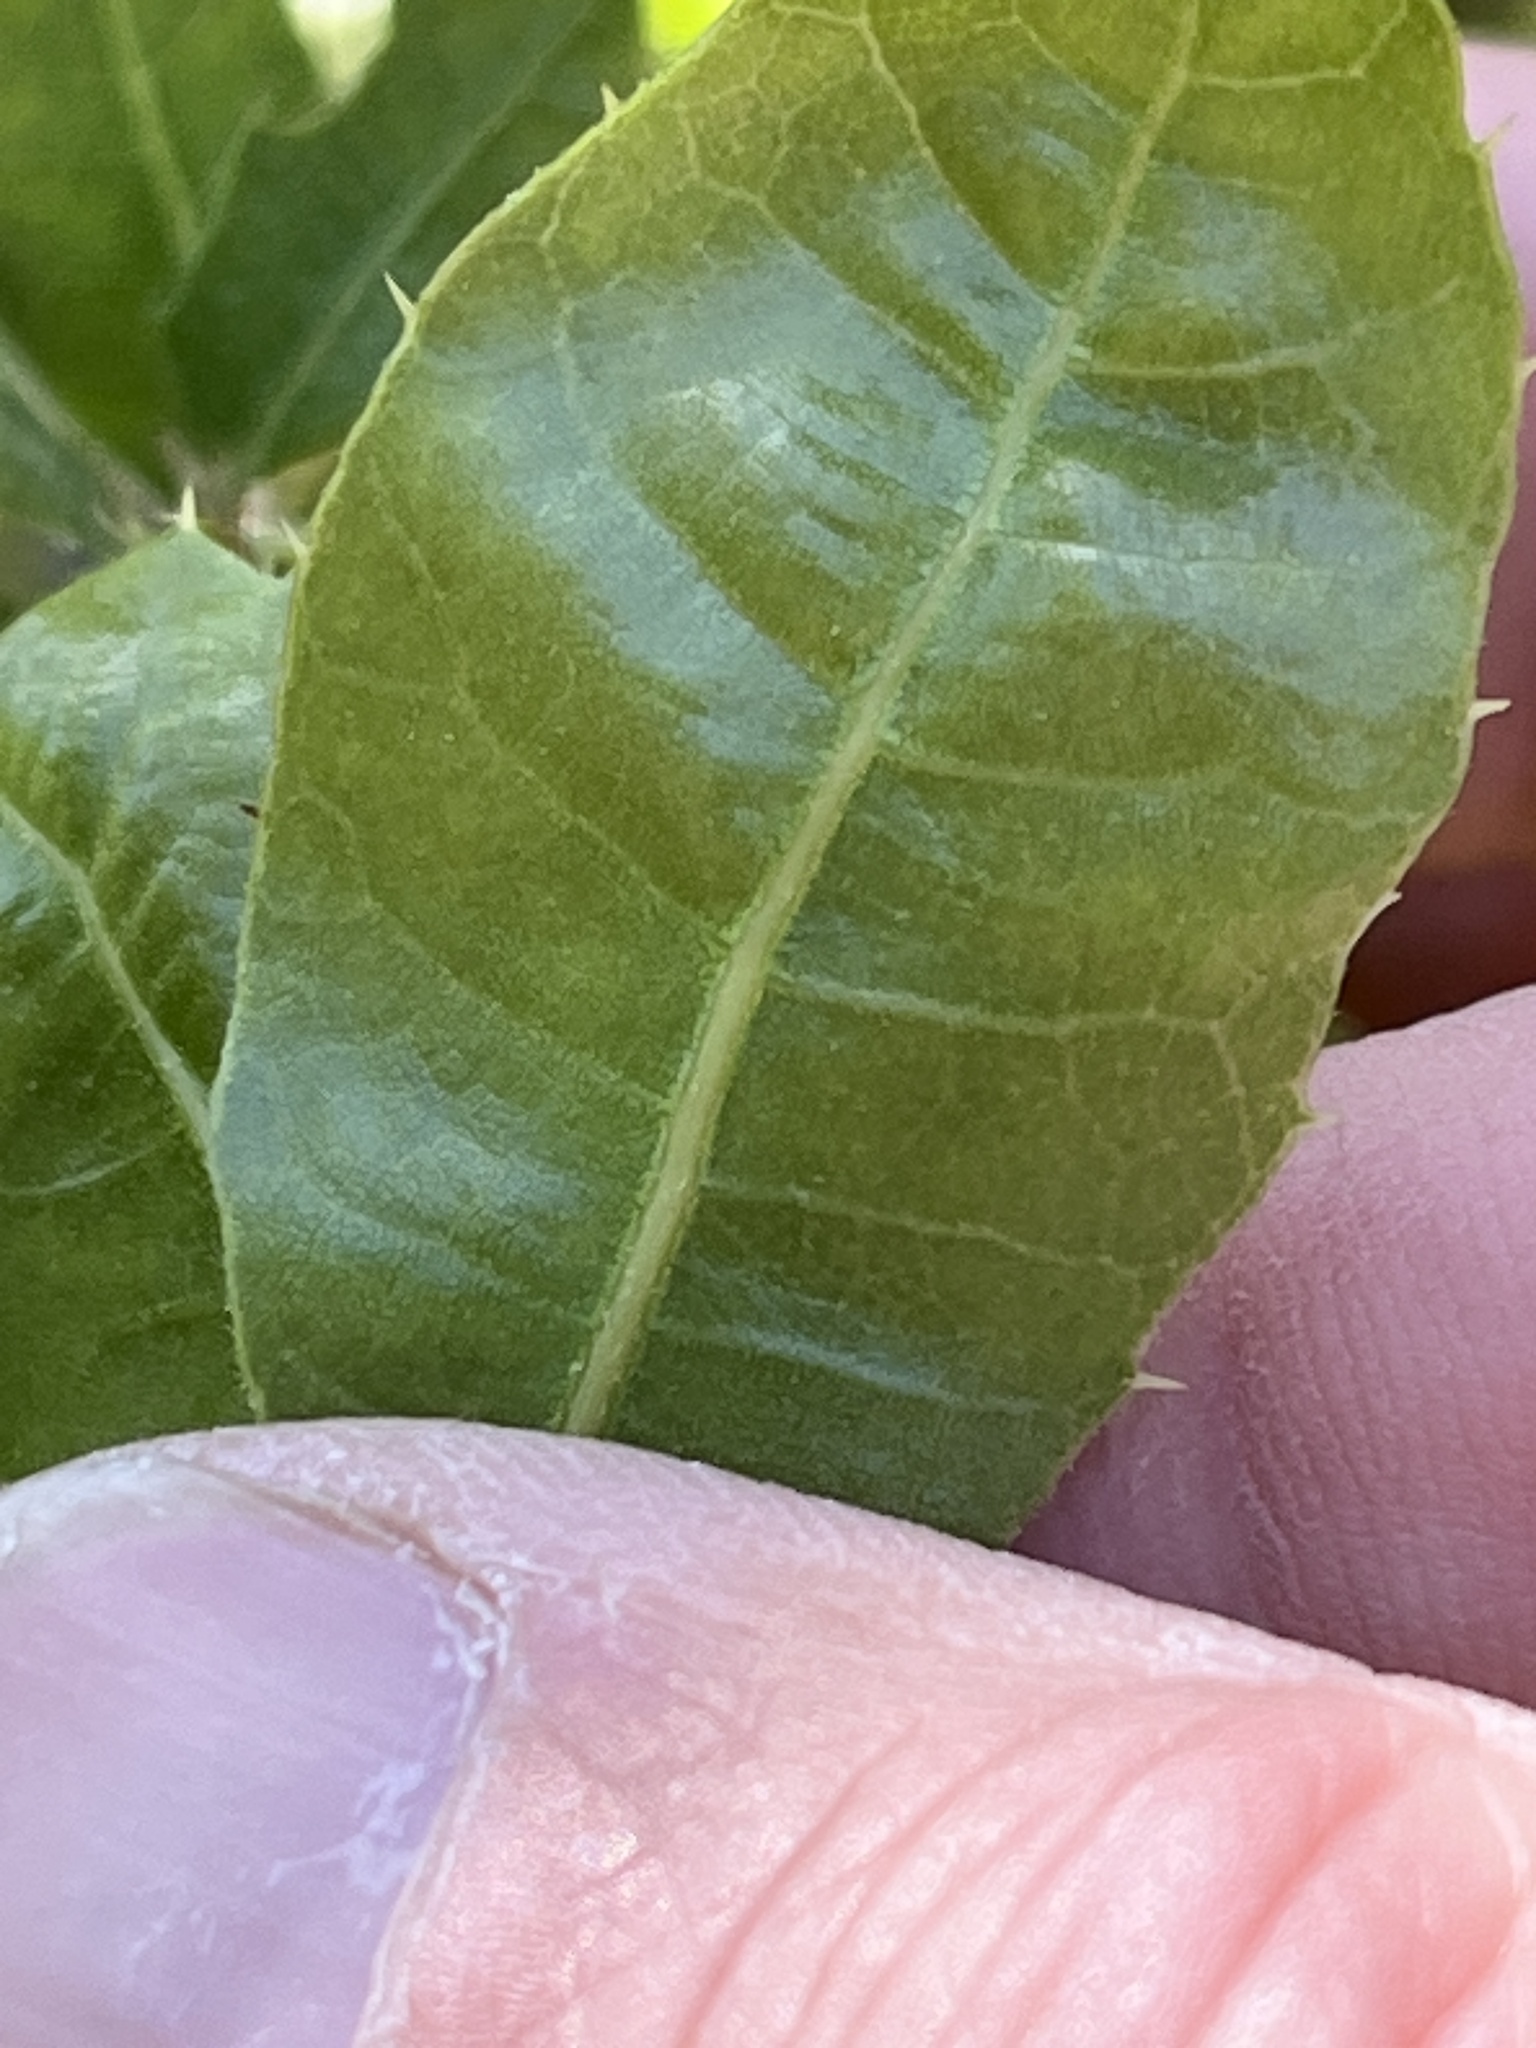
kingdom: Plantae
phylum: Tracheophyta
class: Magnoliopsida
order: Fagales
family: Fagaceae
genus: Quercus
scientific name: Quercus wislizeni
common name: Interior live oak
